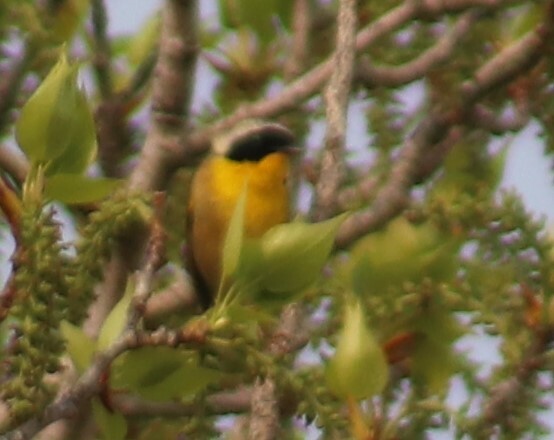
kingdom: Animalia
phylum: Chordata
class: Aves
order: Passeriformes
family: Parulidae
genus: Geothlypis
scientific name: Geothlypis trichas
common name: Common yellowthroat
